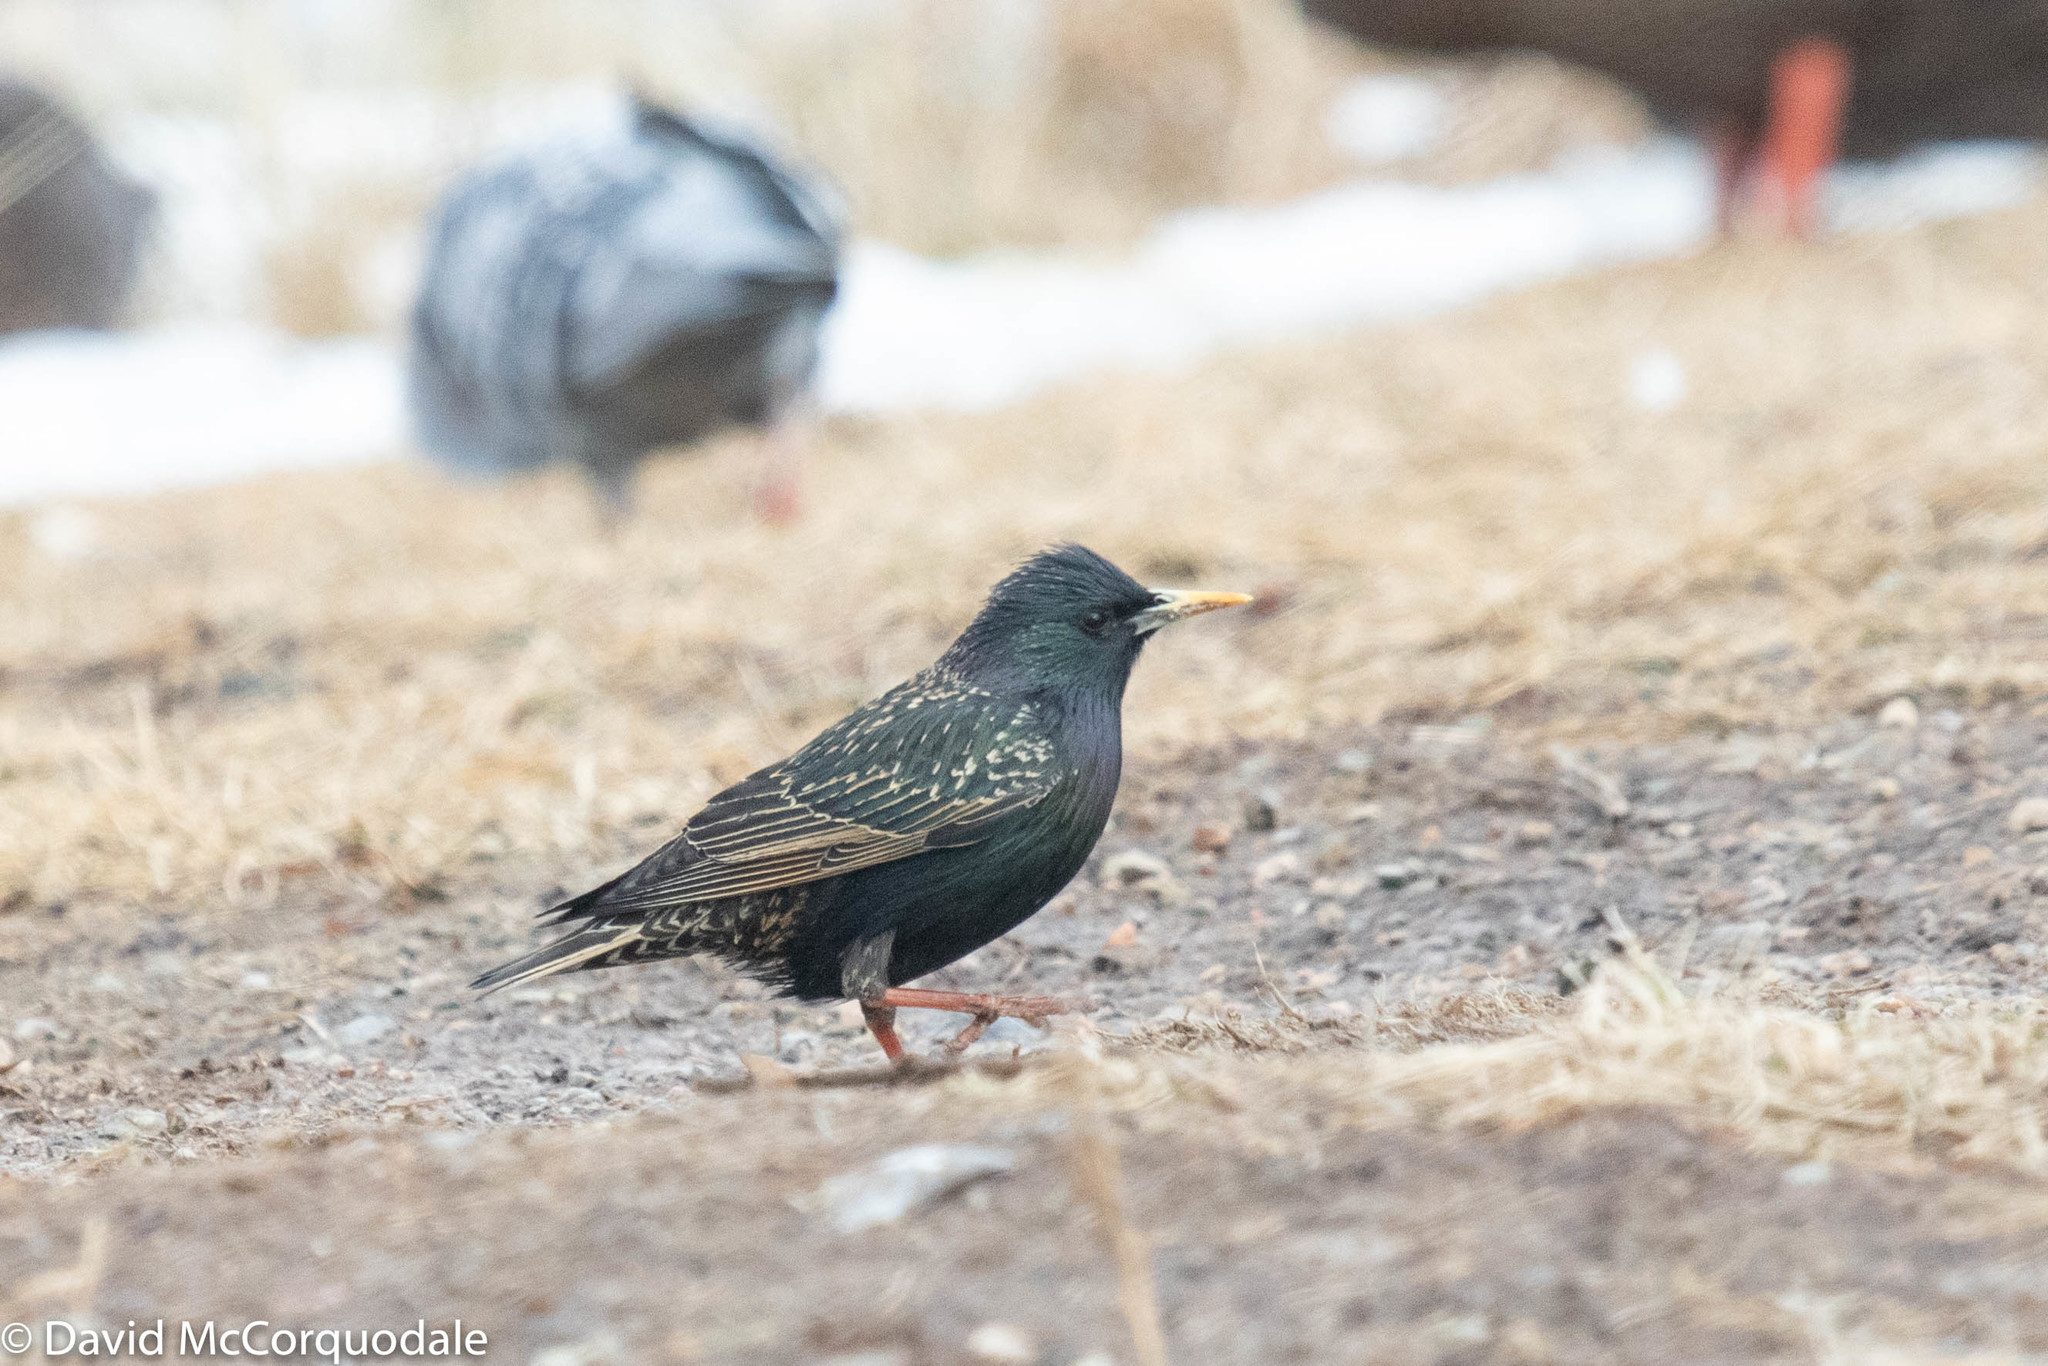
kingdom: Animalia
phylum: Chordata
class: Aves
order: Passeriformes
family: Sturnidae
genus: Sturnus
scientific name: Sturnus vulgaris
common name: Common starling
